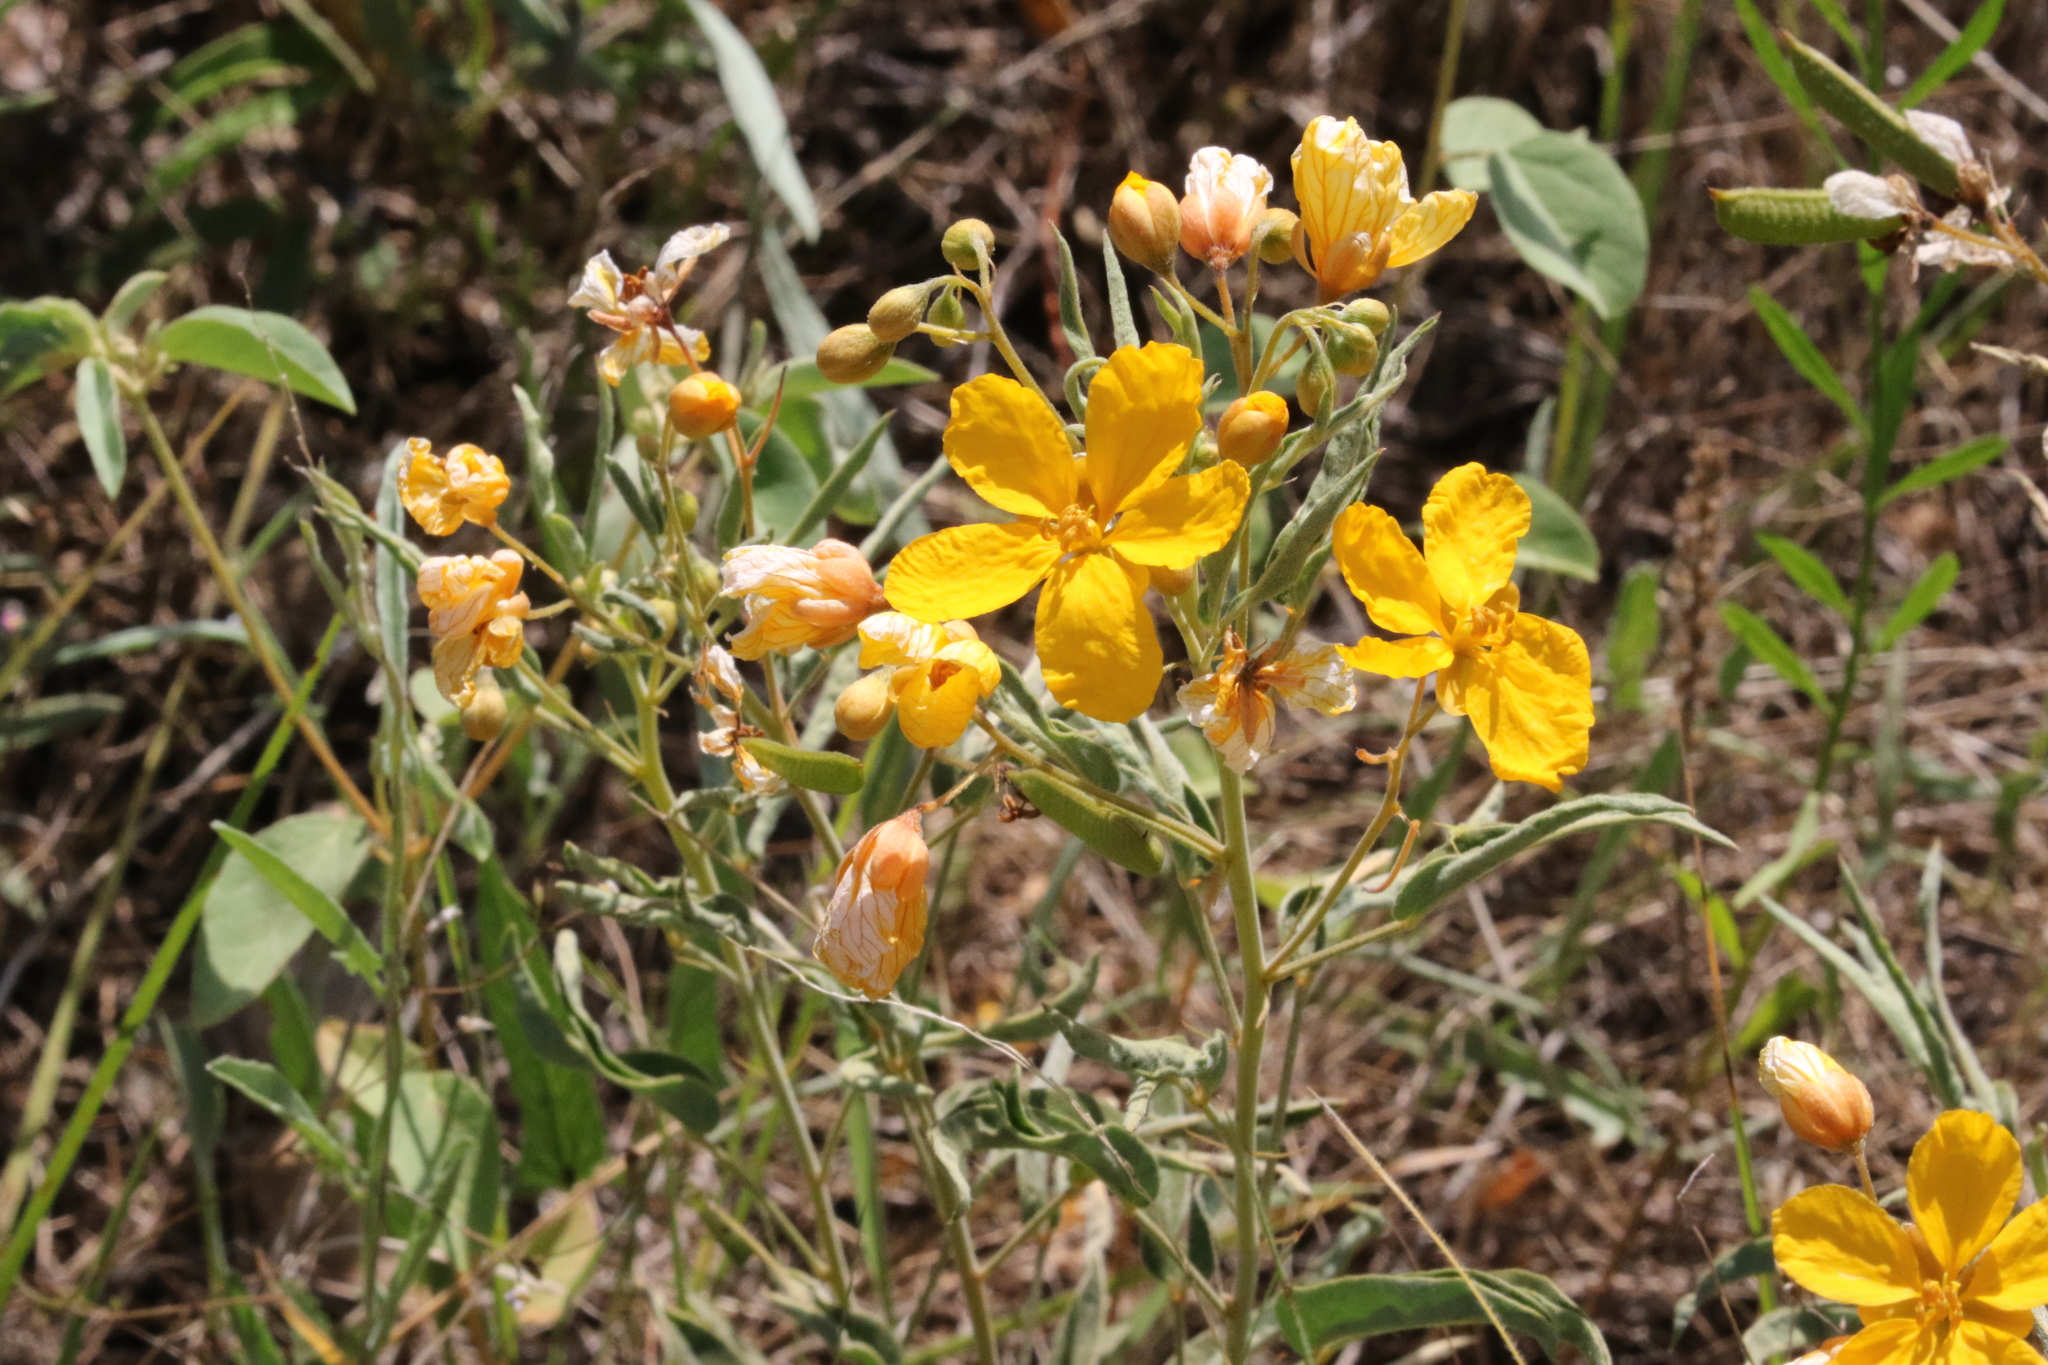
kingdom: Plantae
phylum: Tracheophyta
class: Magnoliopsida
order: Fabales
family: Fabaceae
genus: Senna
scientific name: Senna roemeriana
